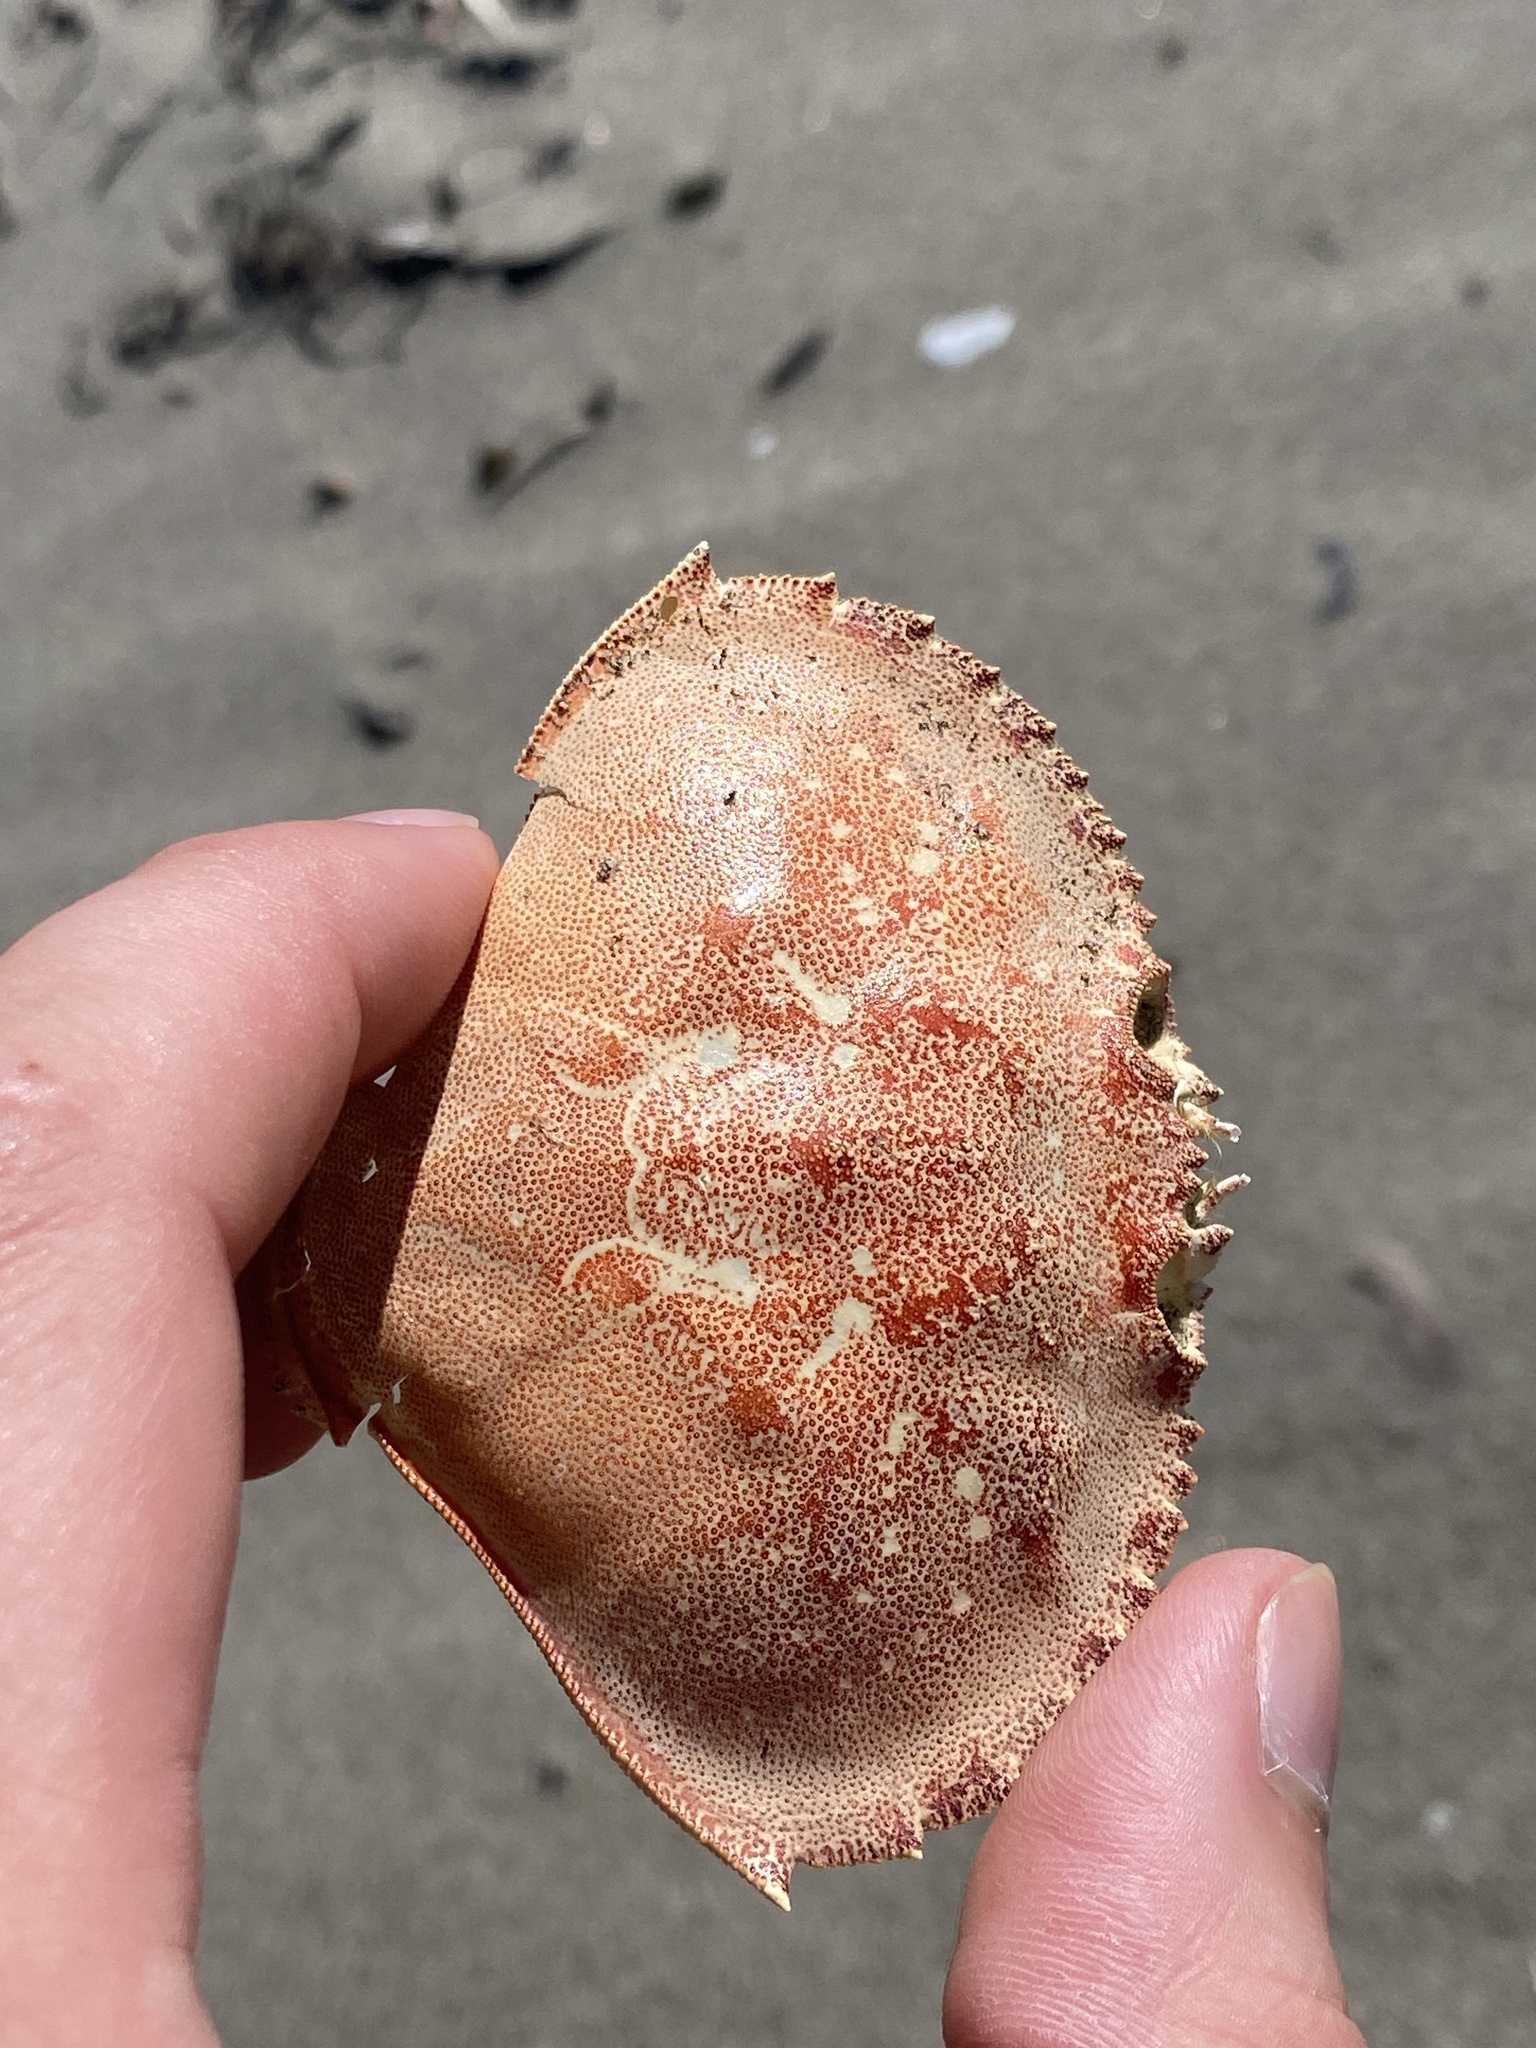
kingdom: Animalia
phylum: Arthropoda
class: Malacostraca
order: Decapoda
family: Cancridae
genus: Metacarcinus
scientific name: Metacarcinus magister
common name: Californian crab
